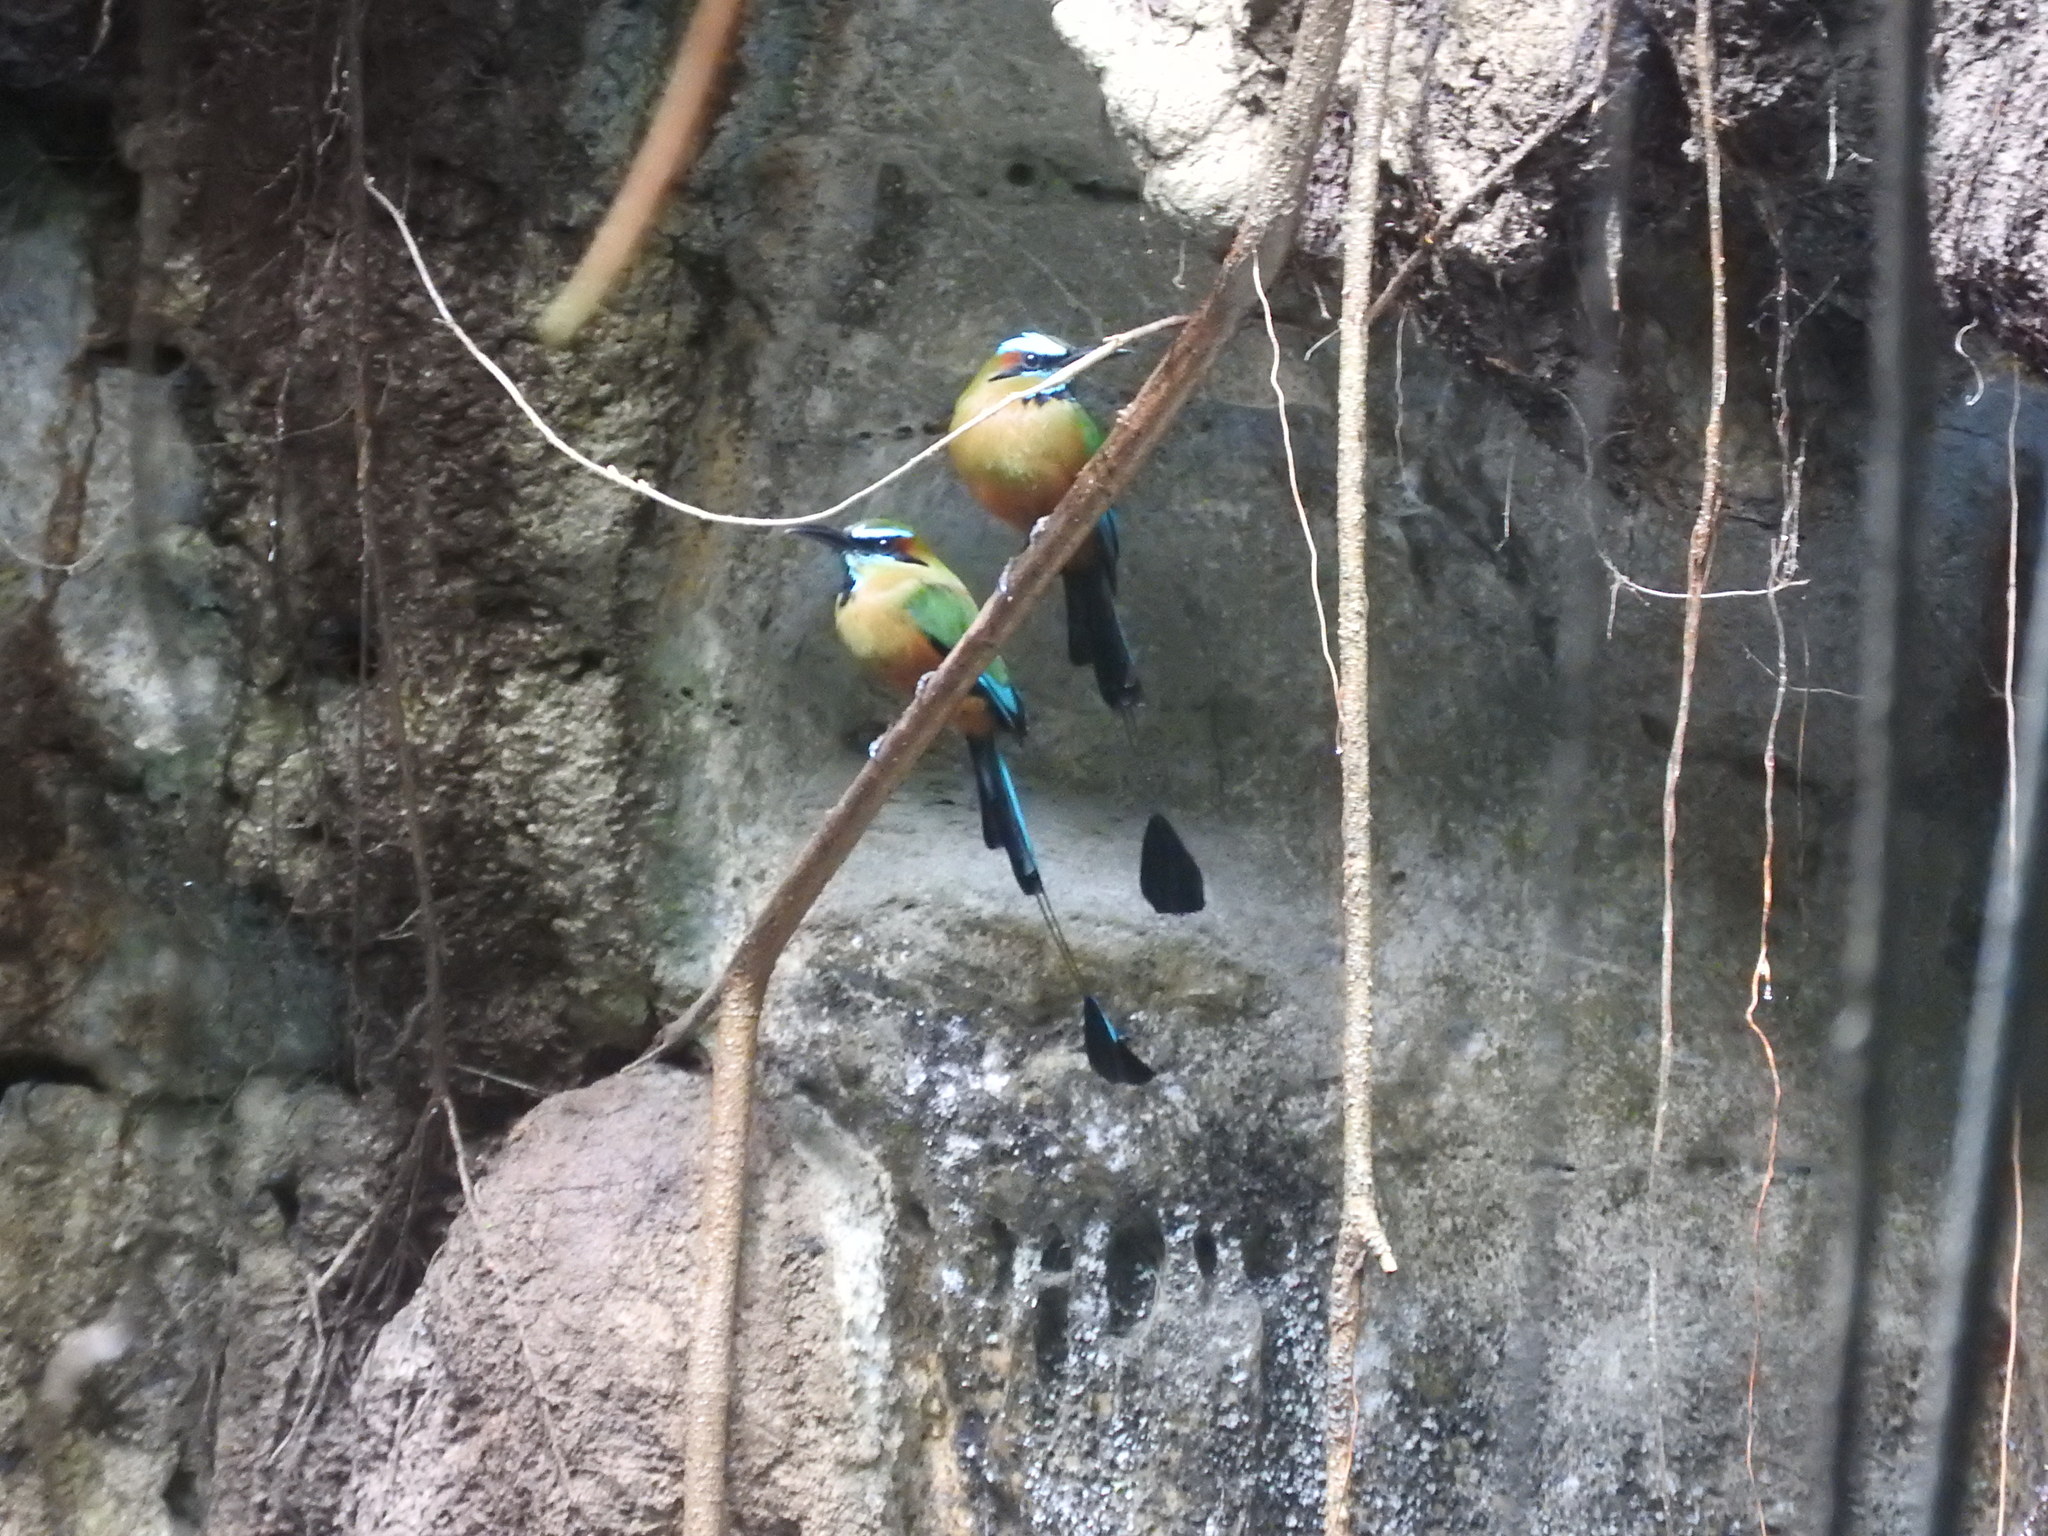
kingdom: Animalia
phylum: Chordata
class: Aves
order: Coraciiformes
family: Momotidae
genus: Eumomota
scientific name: Eumomota superciliosa
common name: Turquoise-browed motmot
